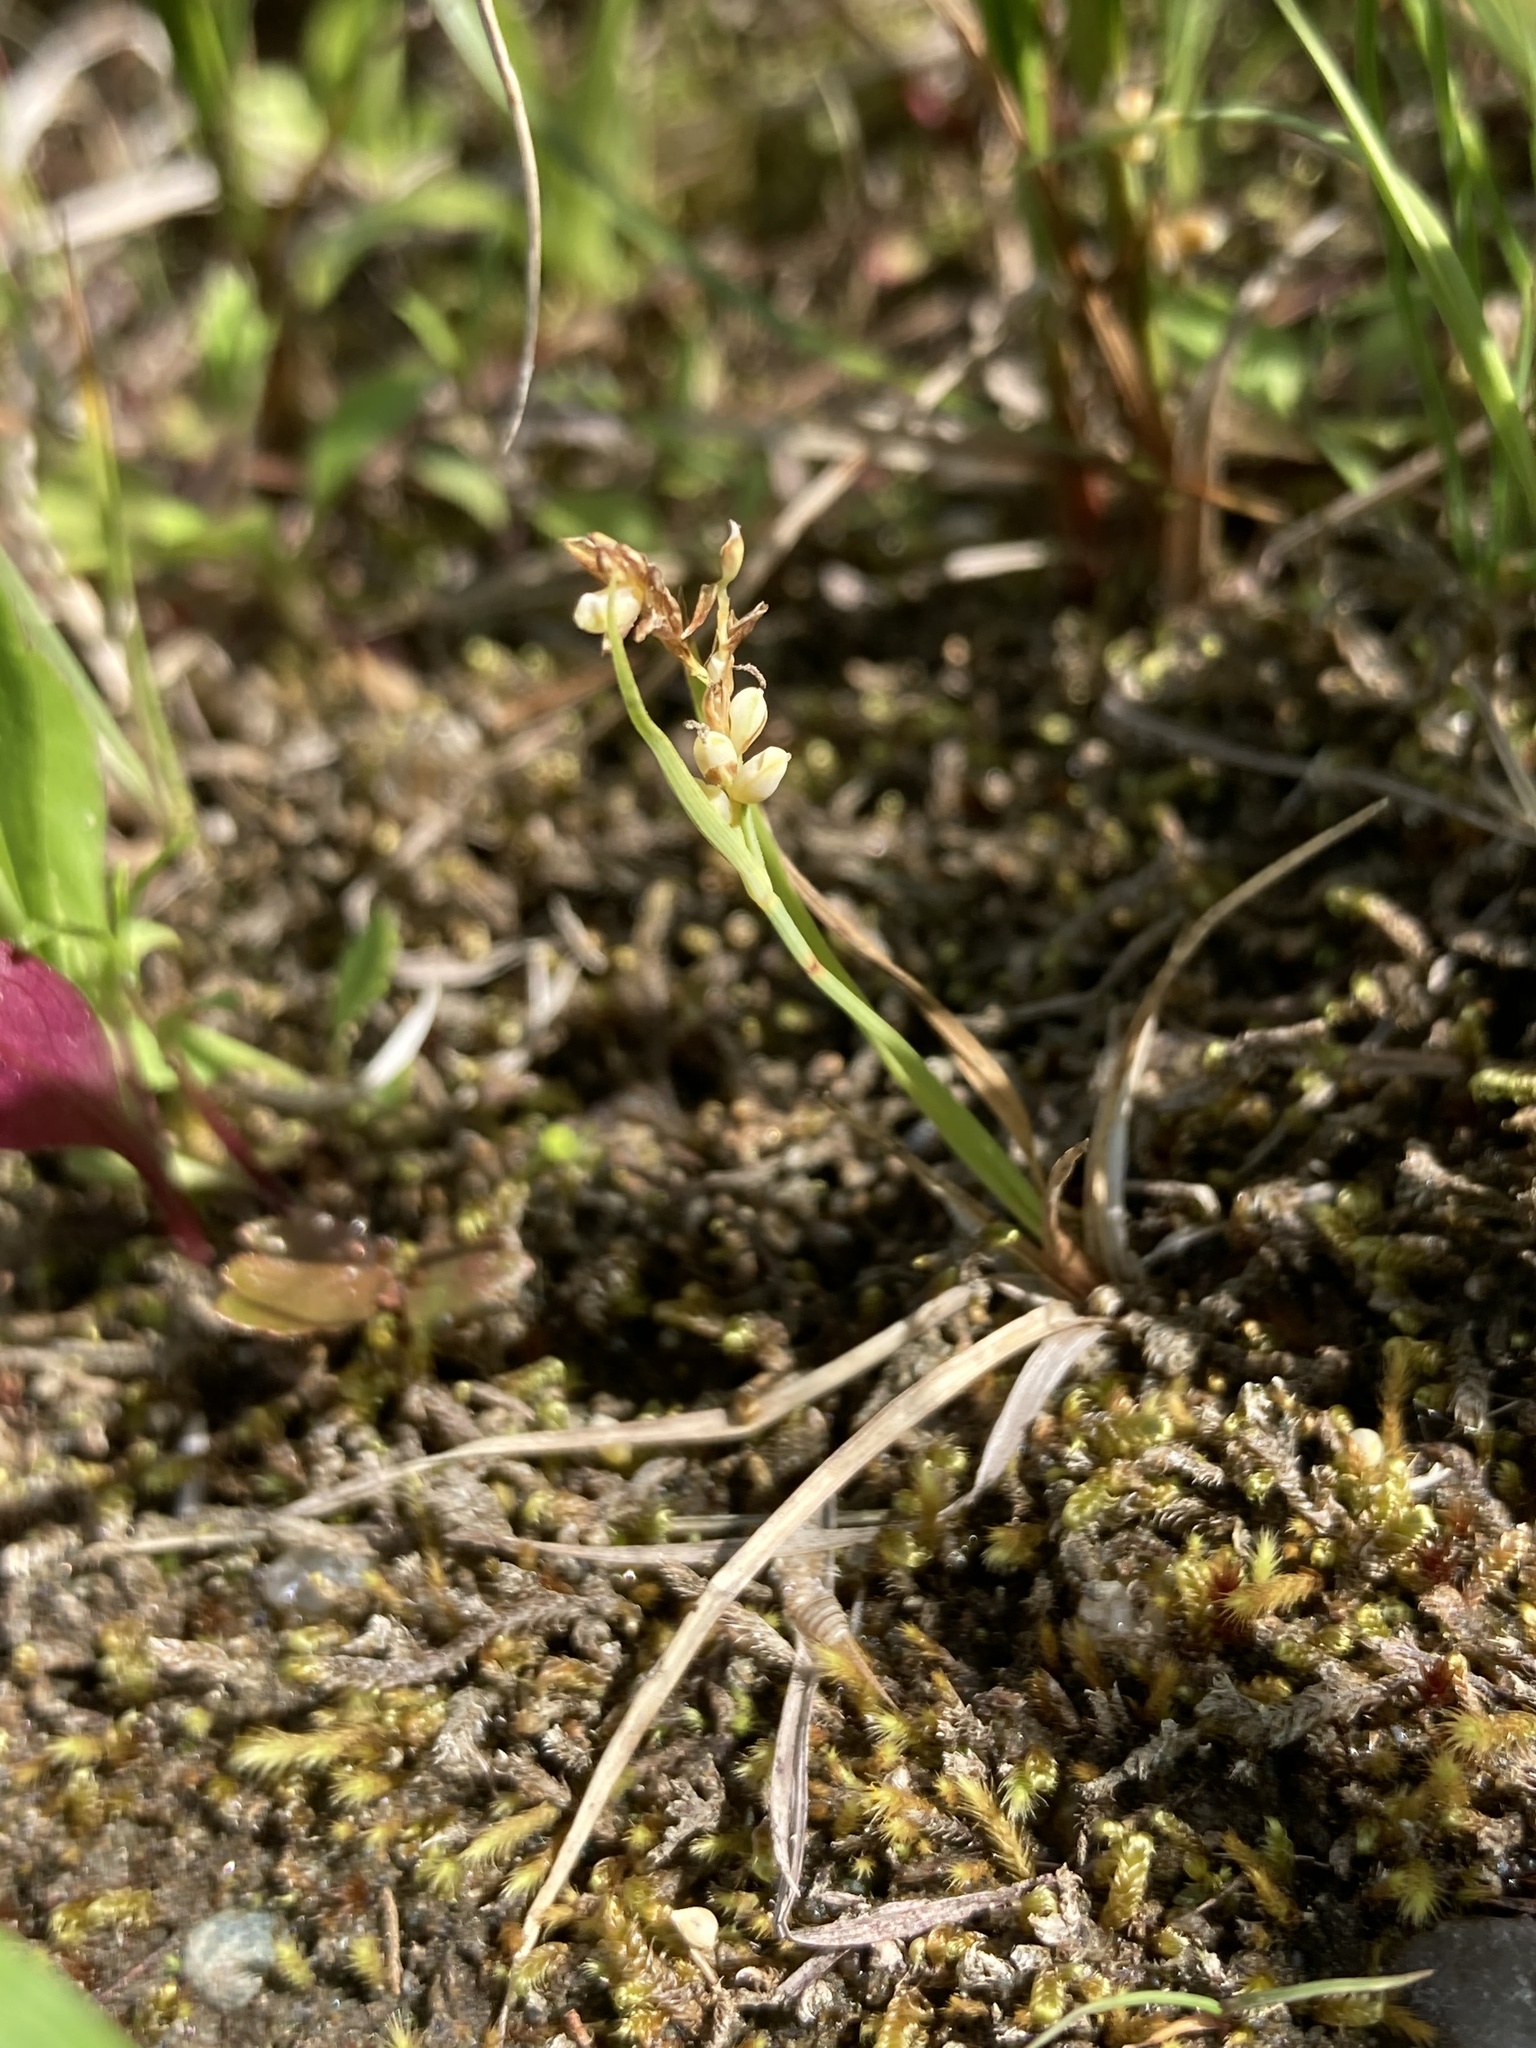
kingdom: Plantae
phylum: Tracheophyta
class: Liliopsida
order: Poales
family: Cyperaceae
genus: Carex
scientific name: Carex garberi
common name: Elk sedge
